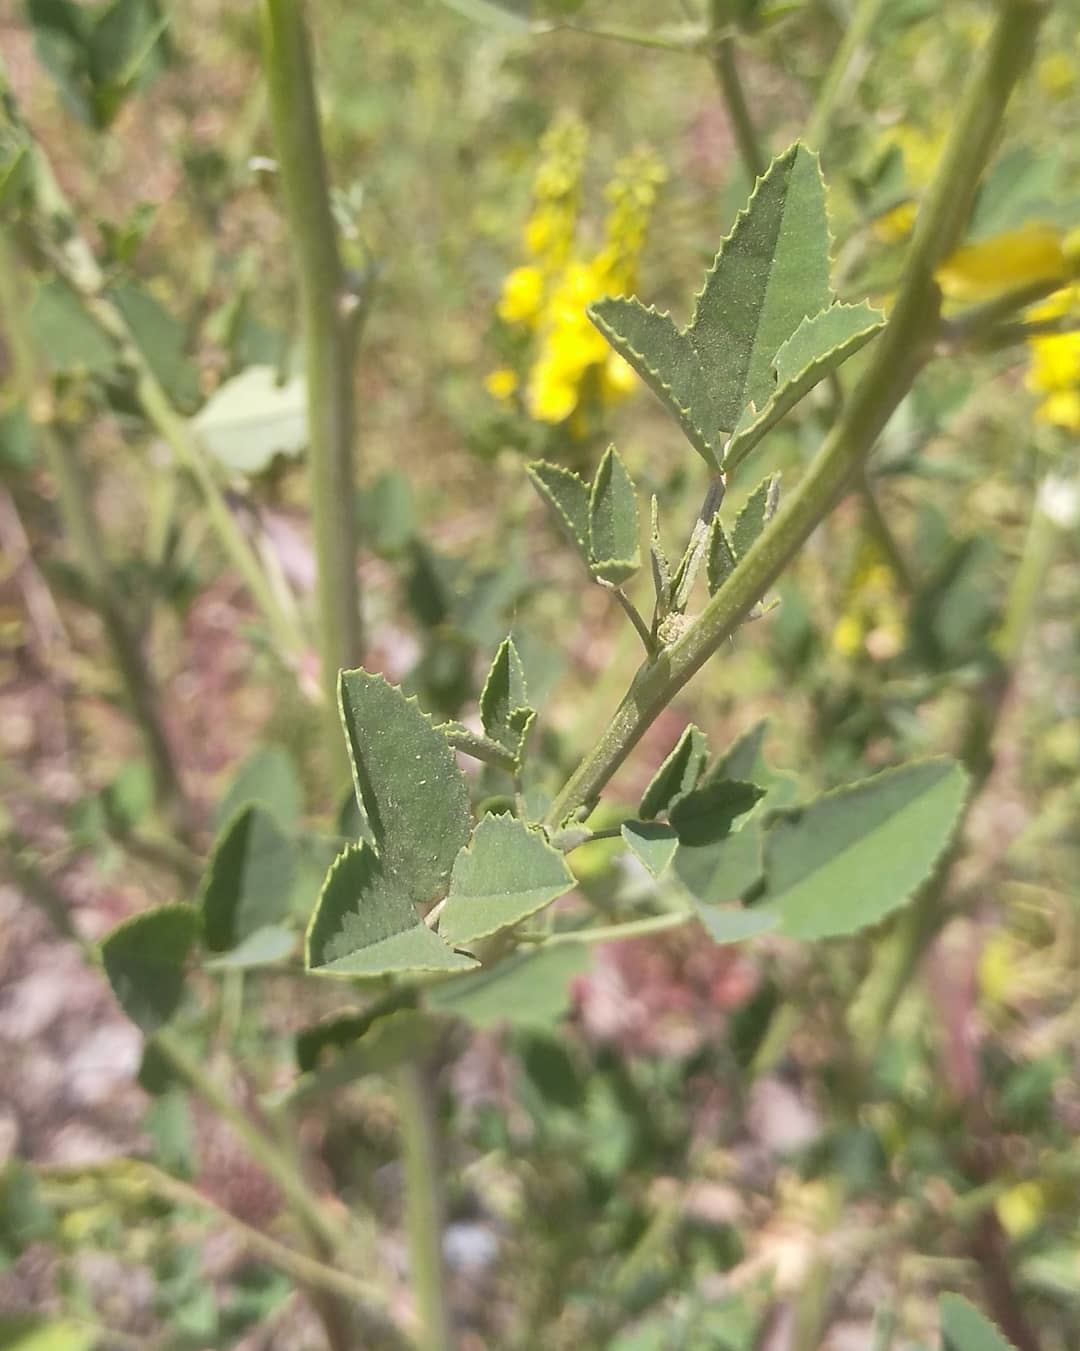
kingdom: Plantae
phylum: Tracheophyta
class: Magnoliopsida
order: Fabales
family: Fabaceae
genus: Melilotus
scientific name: Melilotus officinalis
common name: Sweetclover
